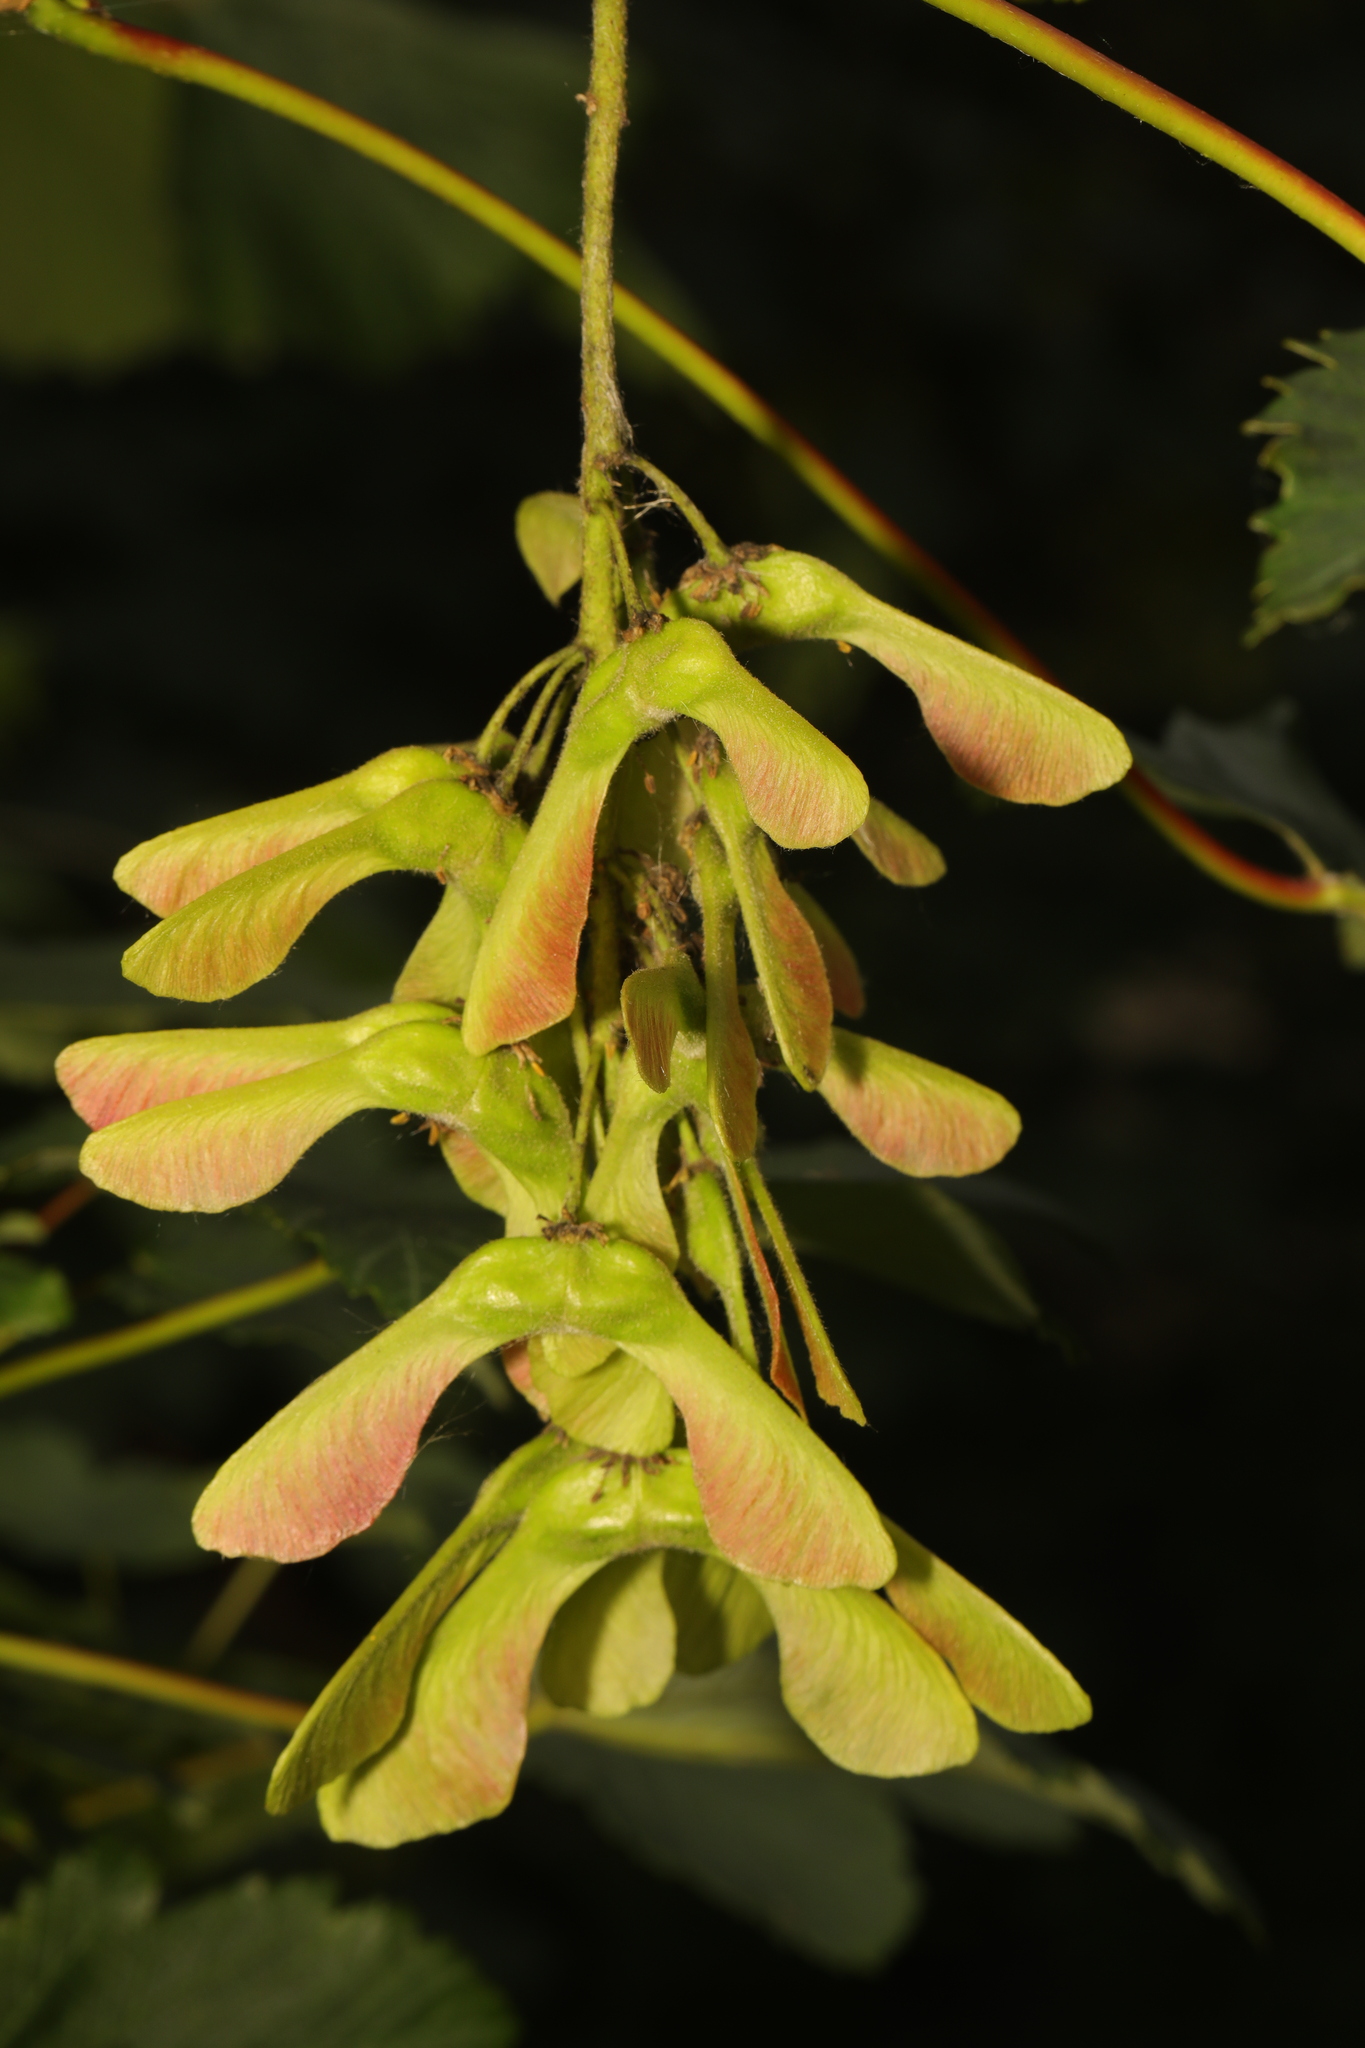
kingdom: Plantae
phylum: Tracheophyta
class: Magnoliopsida
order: Sapindales
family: Sapindaceae
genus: Acer
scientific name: Acer pseudoplatanus
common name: Sycamore
